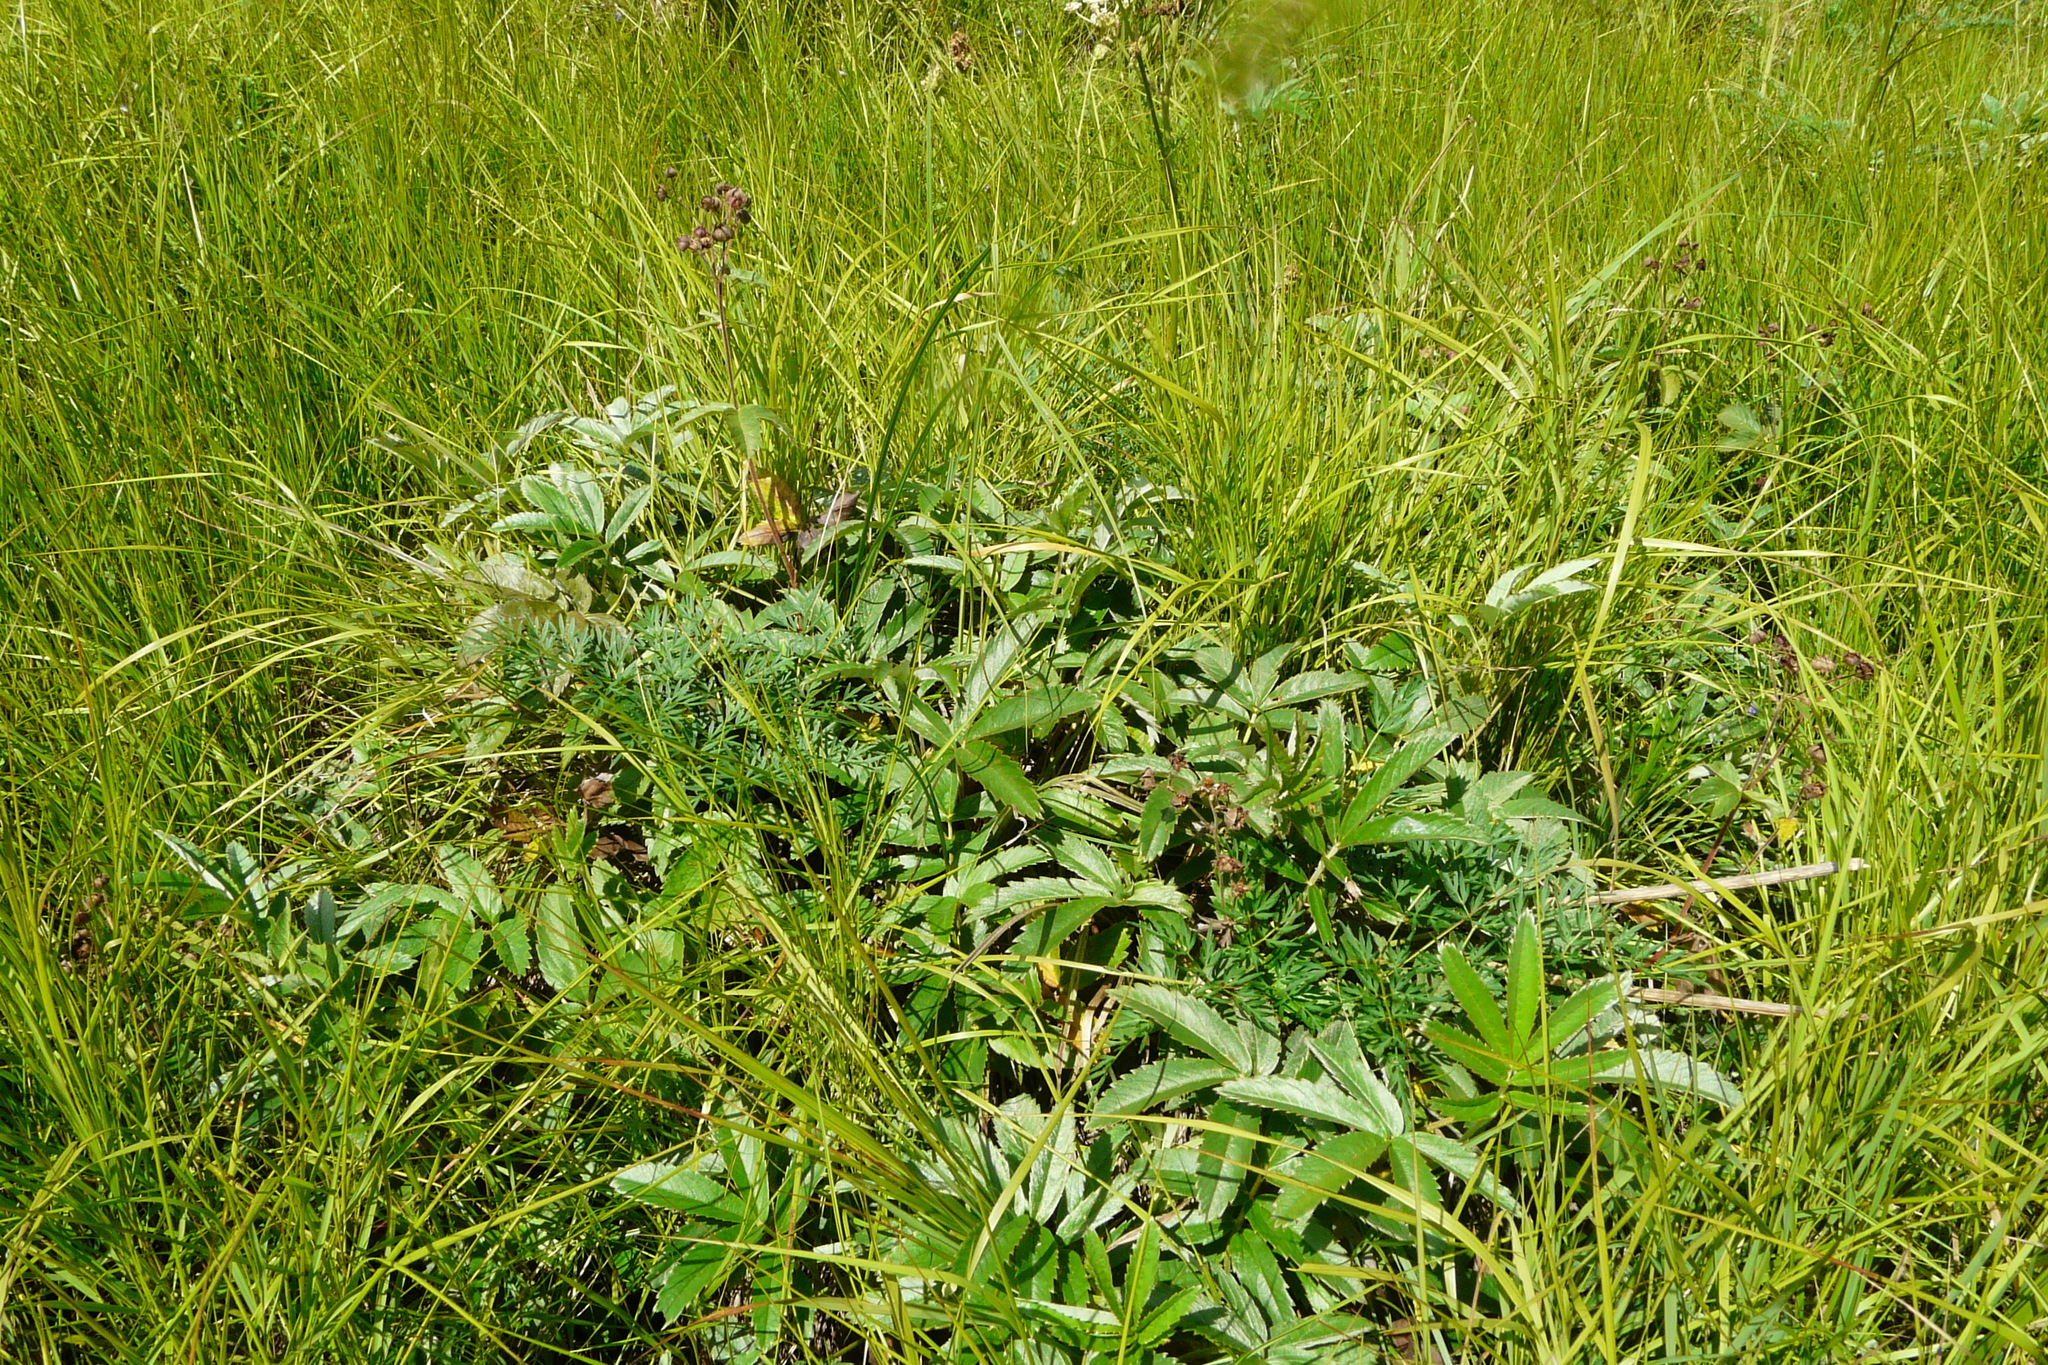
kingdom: Plantae
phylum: Tracheophyta
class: Magnoliopsida
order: Rosales
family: Rosaceae
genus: Comarum
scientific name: Comarum palustre
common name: Marsh cinquefoil
